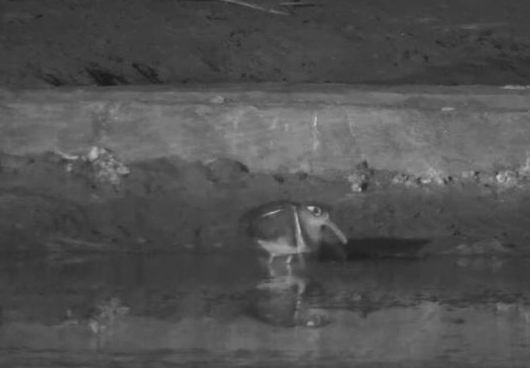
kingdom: Animalia
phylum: Chordata
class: Aves
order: Charadriiformes
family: Rostratulidae
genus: Rostratula
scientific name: Rostratula benghalensis
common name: Greater painted-snipe
